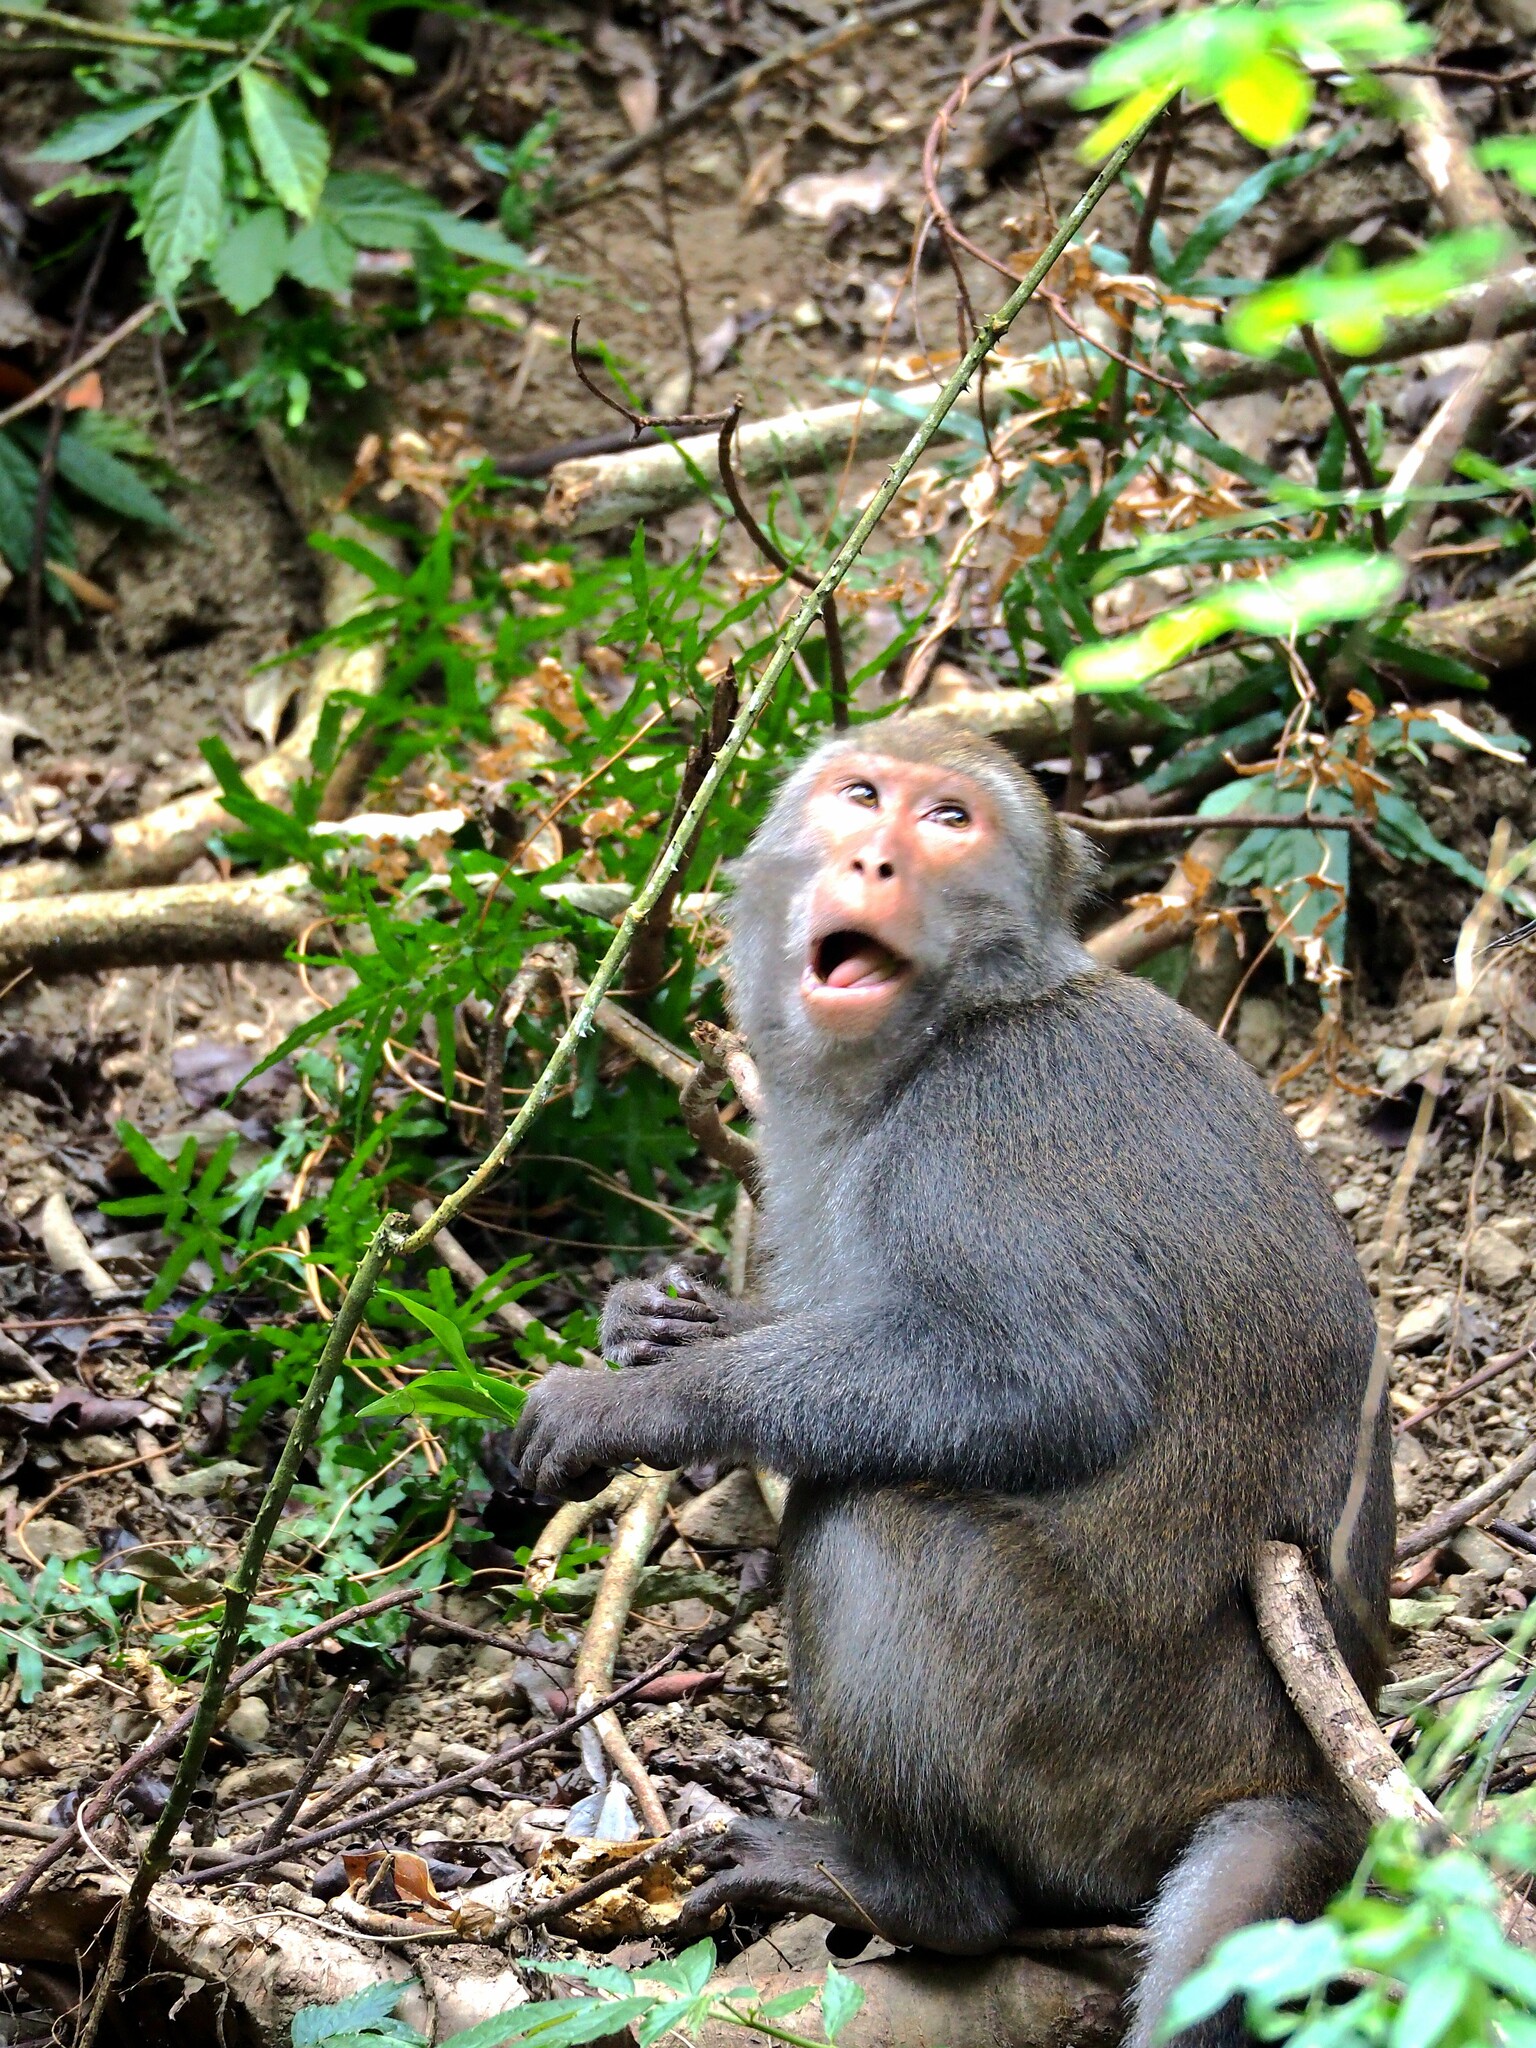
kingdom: Animalia
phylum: Chordata
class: Mammalia
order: Primates
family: Cercopithecidae
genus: Macaca
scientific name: Macaca cyclopis
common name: Formosan rock macaque
